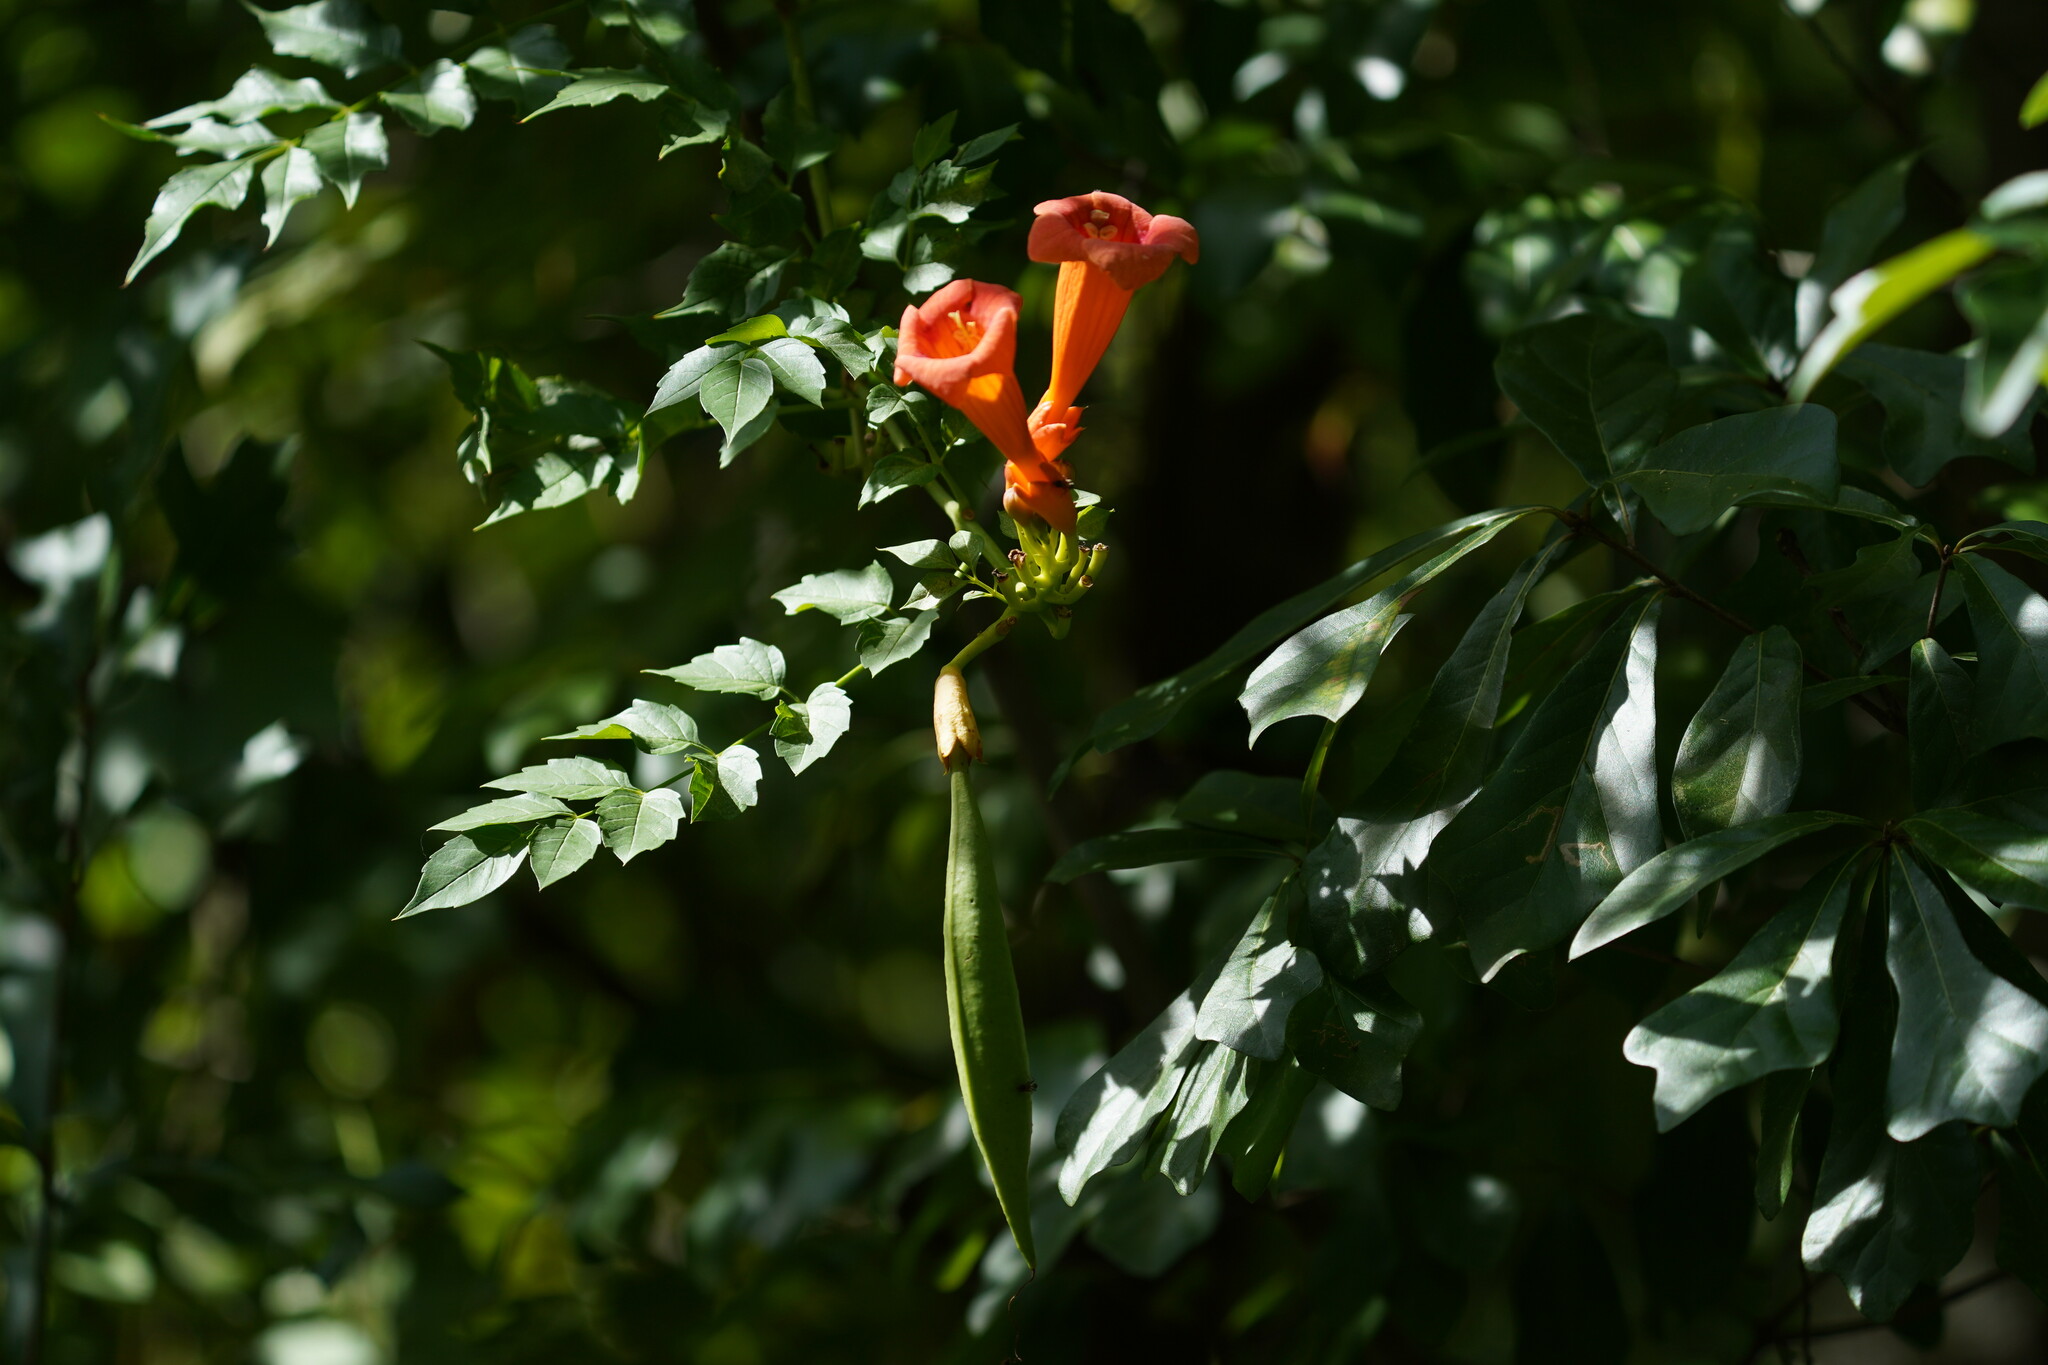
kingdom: Plantae
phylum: Tracheophyta
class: Magnoliopsida
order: Lamiales
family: Bignoniaceae
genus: Campsis
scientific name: Campsis radicans
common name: Trumpet-creeper
